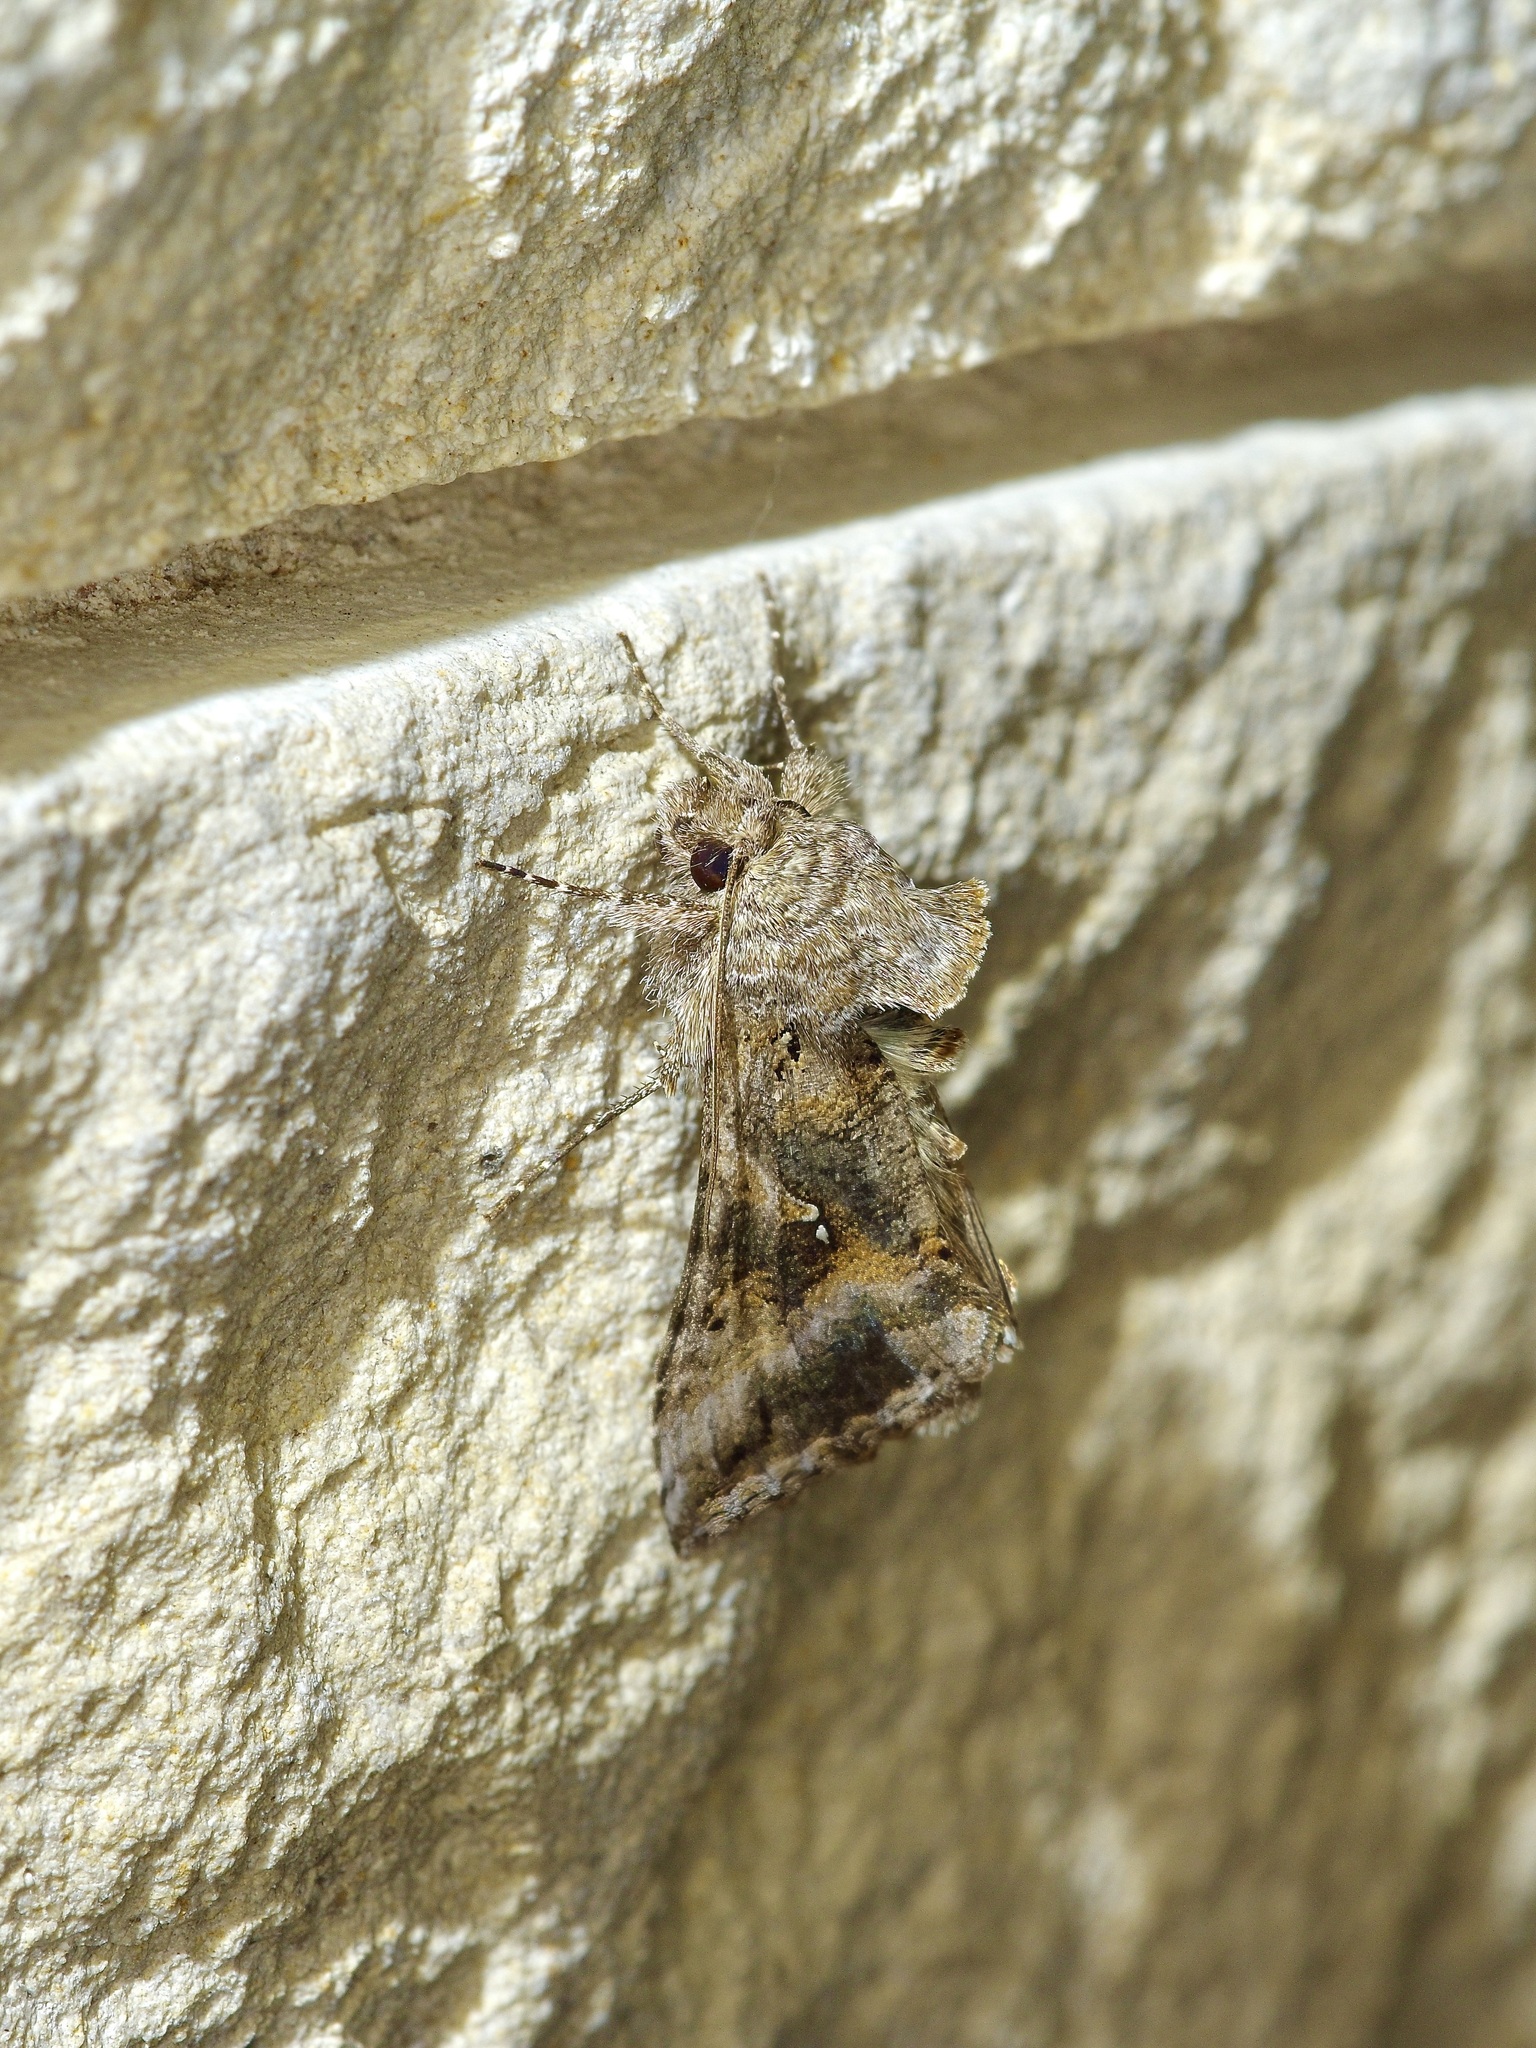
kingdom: Animalia
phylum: Arthropoda
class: Insecta
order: Lepidoptera
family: Noctuidae
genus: Rachiplusia
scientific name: Rachiplusia ou
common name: Gray looper moth
